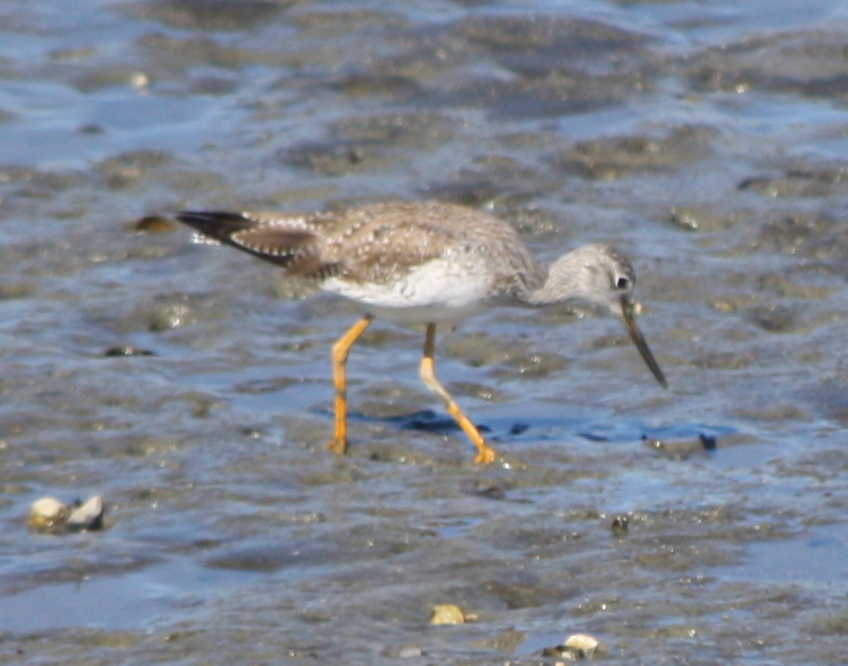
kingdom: Animalia
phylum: Chordata
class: Aves
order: Charadriiformes
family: Scolopacidae
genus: Tringa
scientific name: Tringa melanoleuca
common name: Greater yellowlegs
